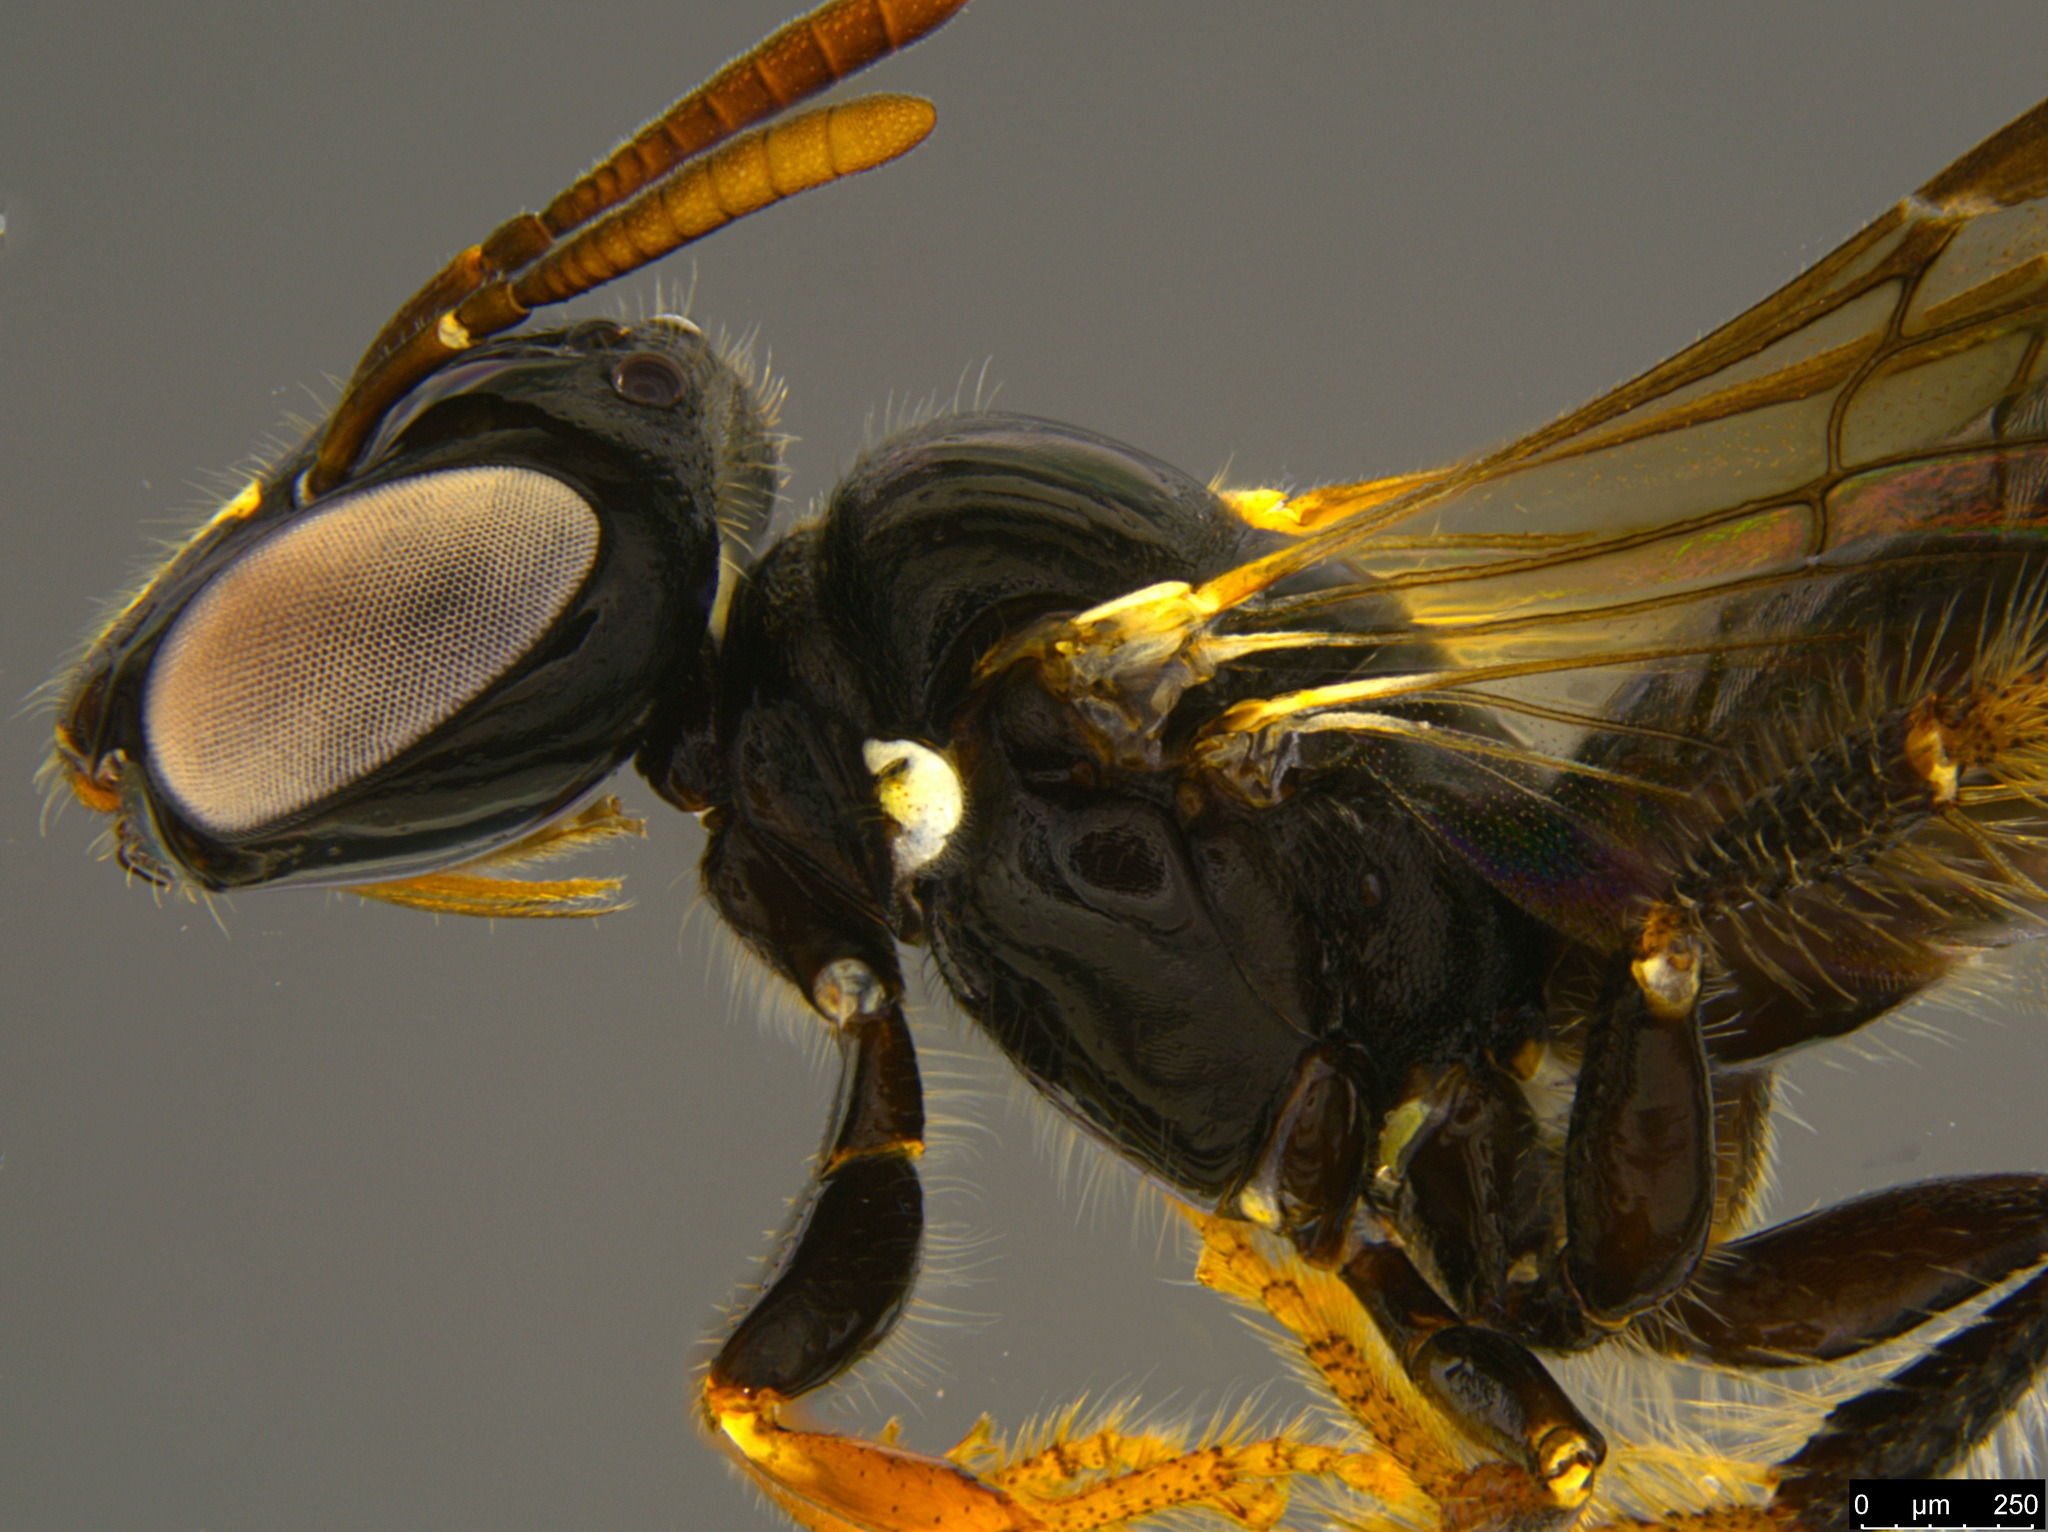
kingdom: Animalia
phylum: Arthropoda
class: Insecta
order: Hymenoptera
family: Apidae
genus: Exoneurella
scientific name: Exoneurella lawsoni
